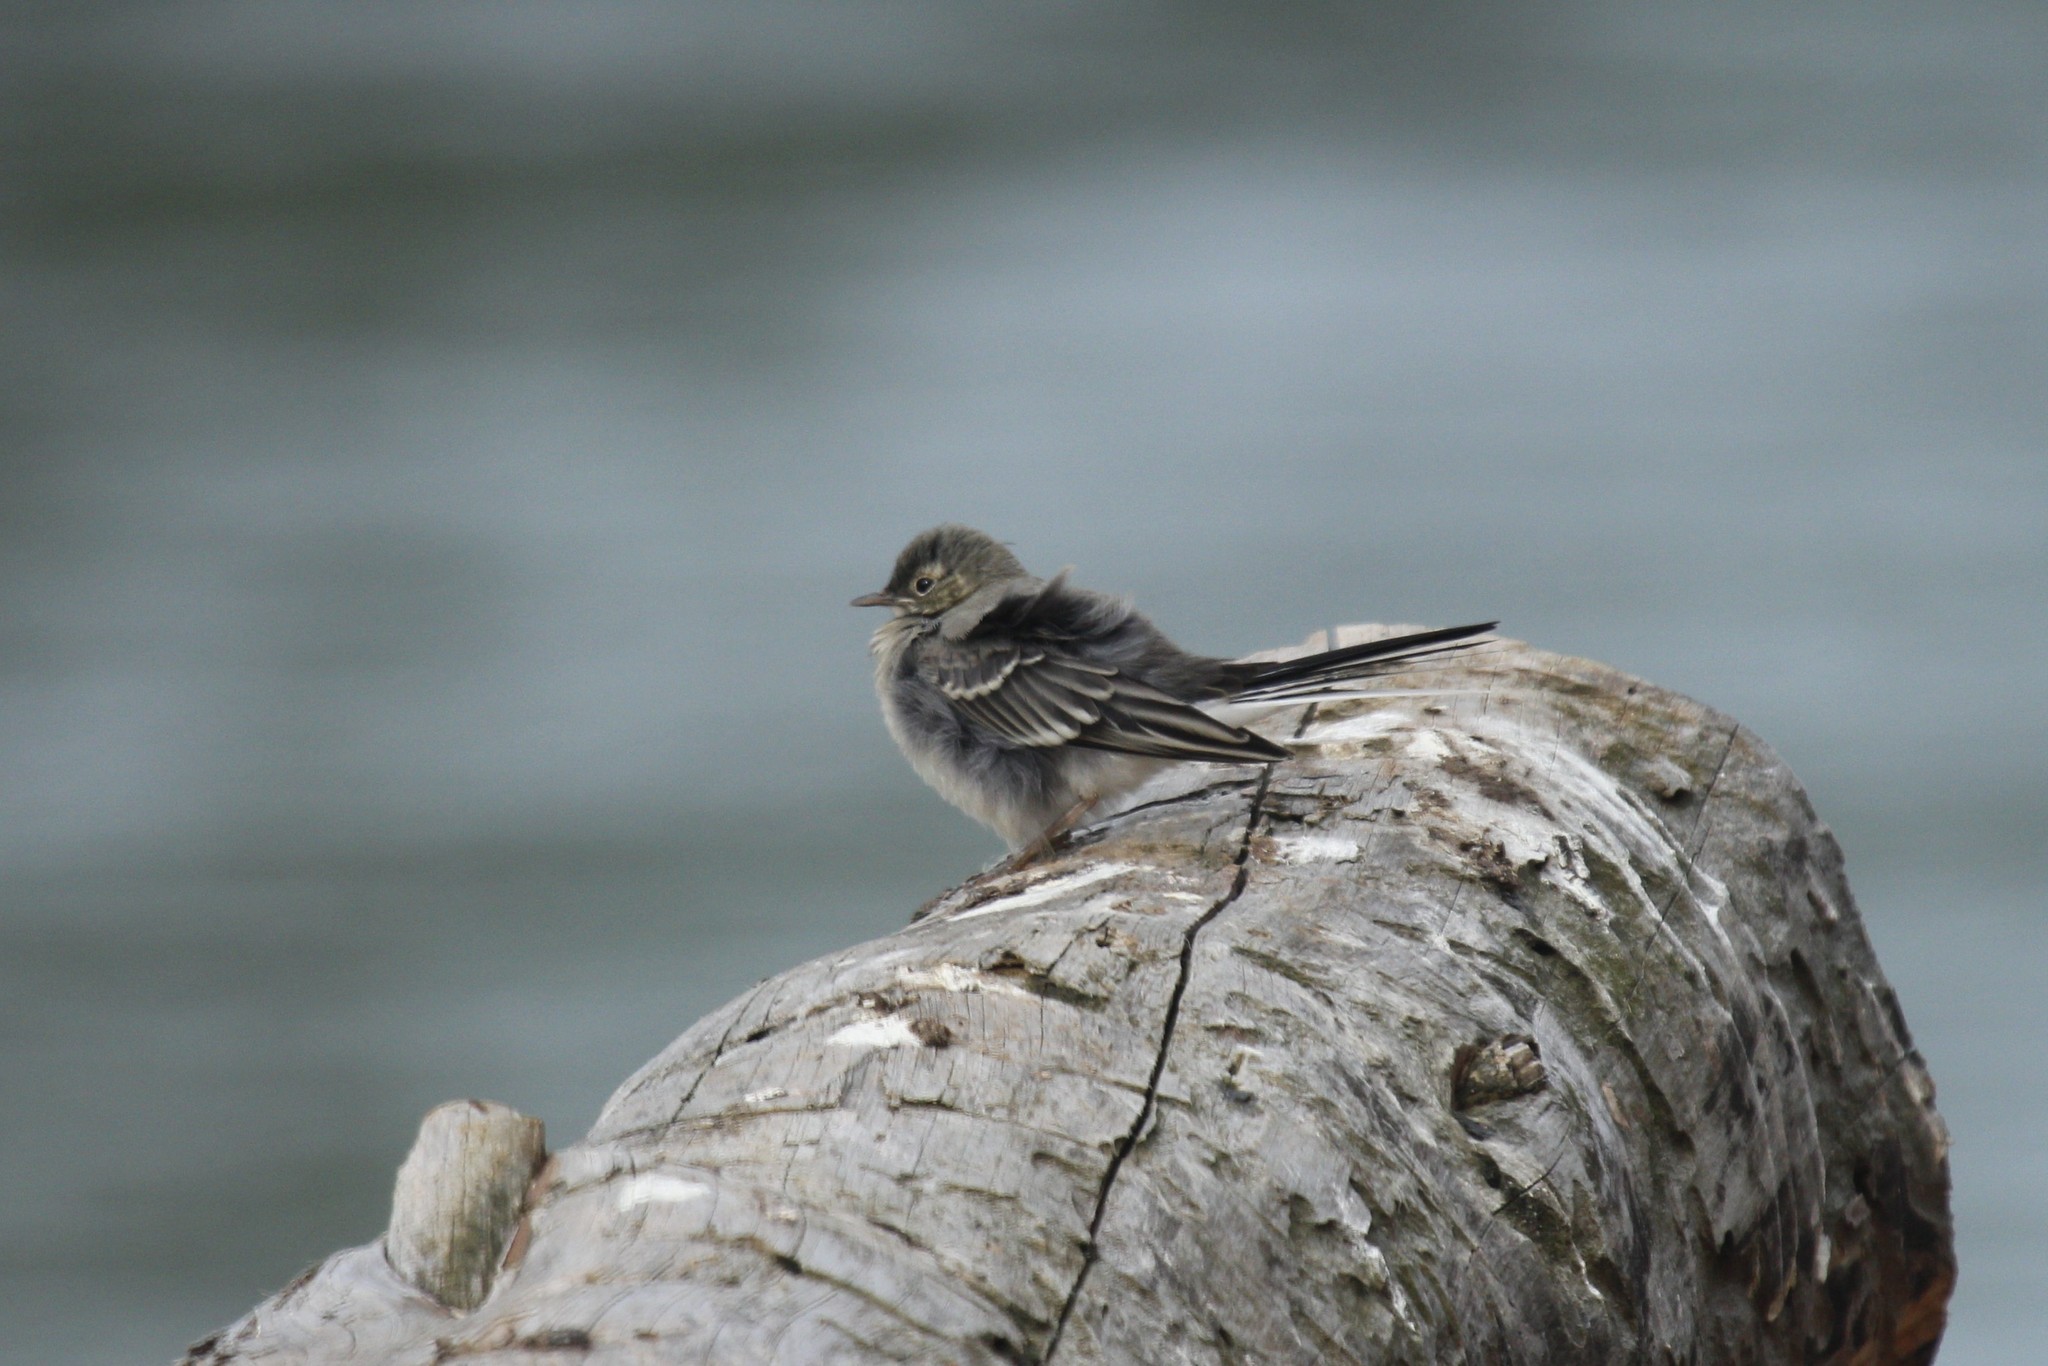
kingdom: Animalia
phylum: Chordata
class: Aves
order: Passeriformes
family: Motacillidae
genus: Motacilla
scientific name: Motacilla alba
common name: White wagtail
